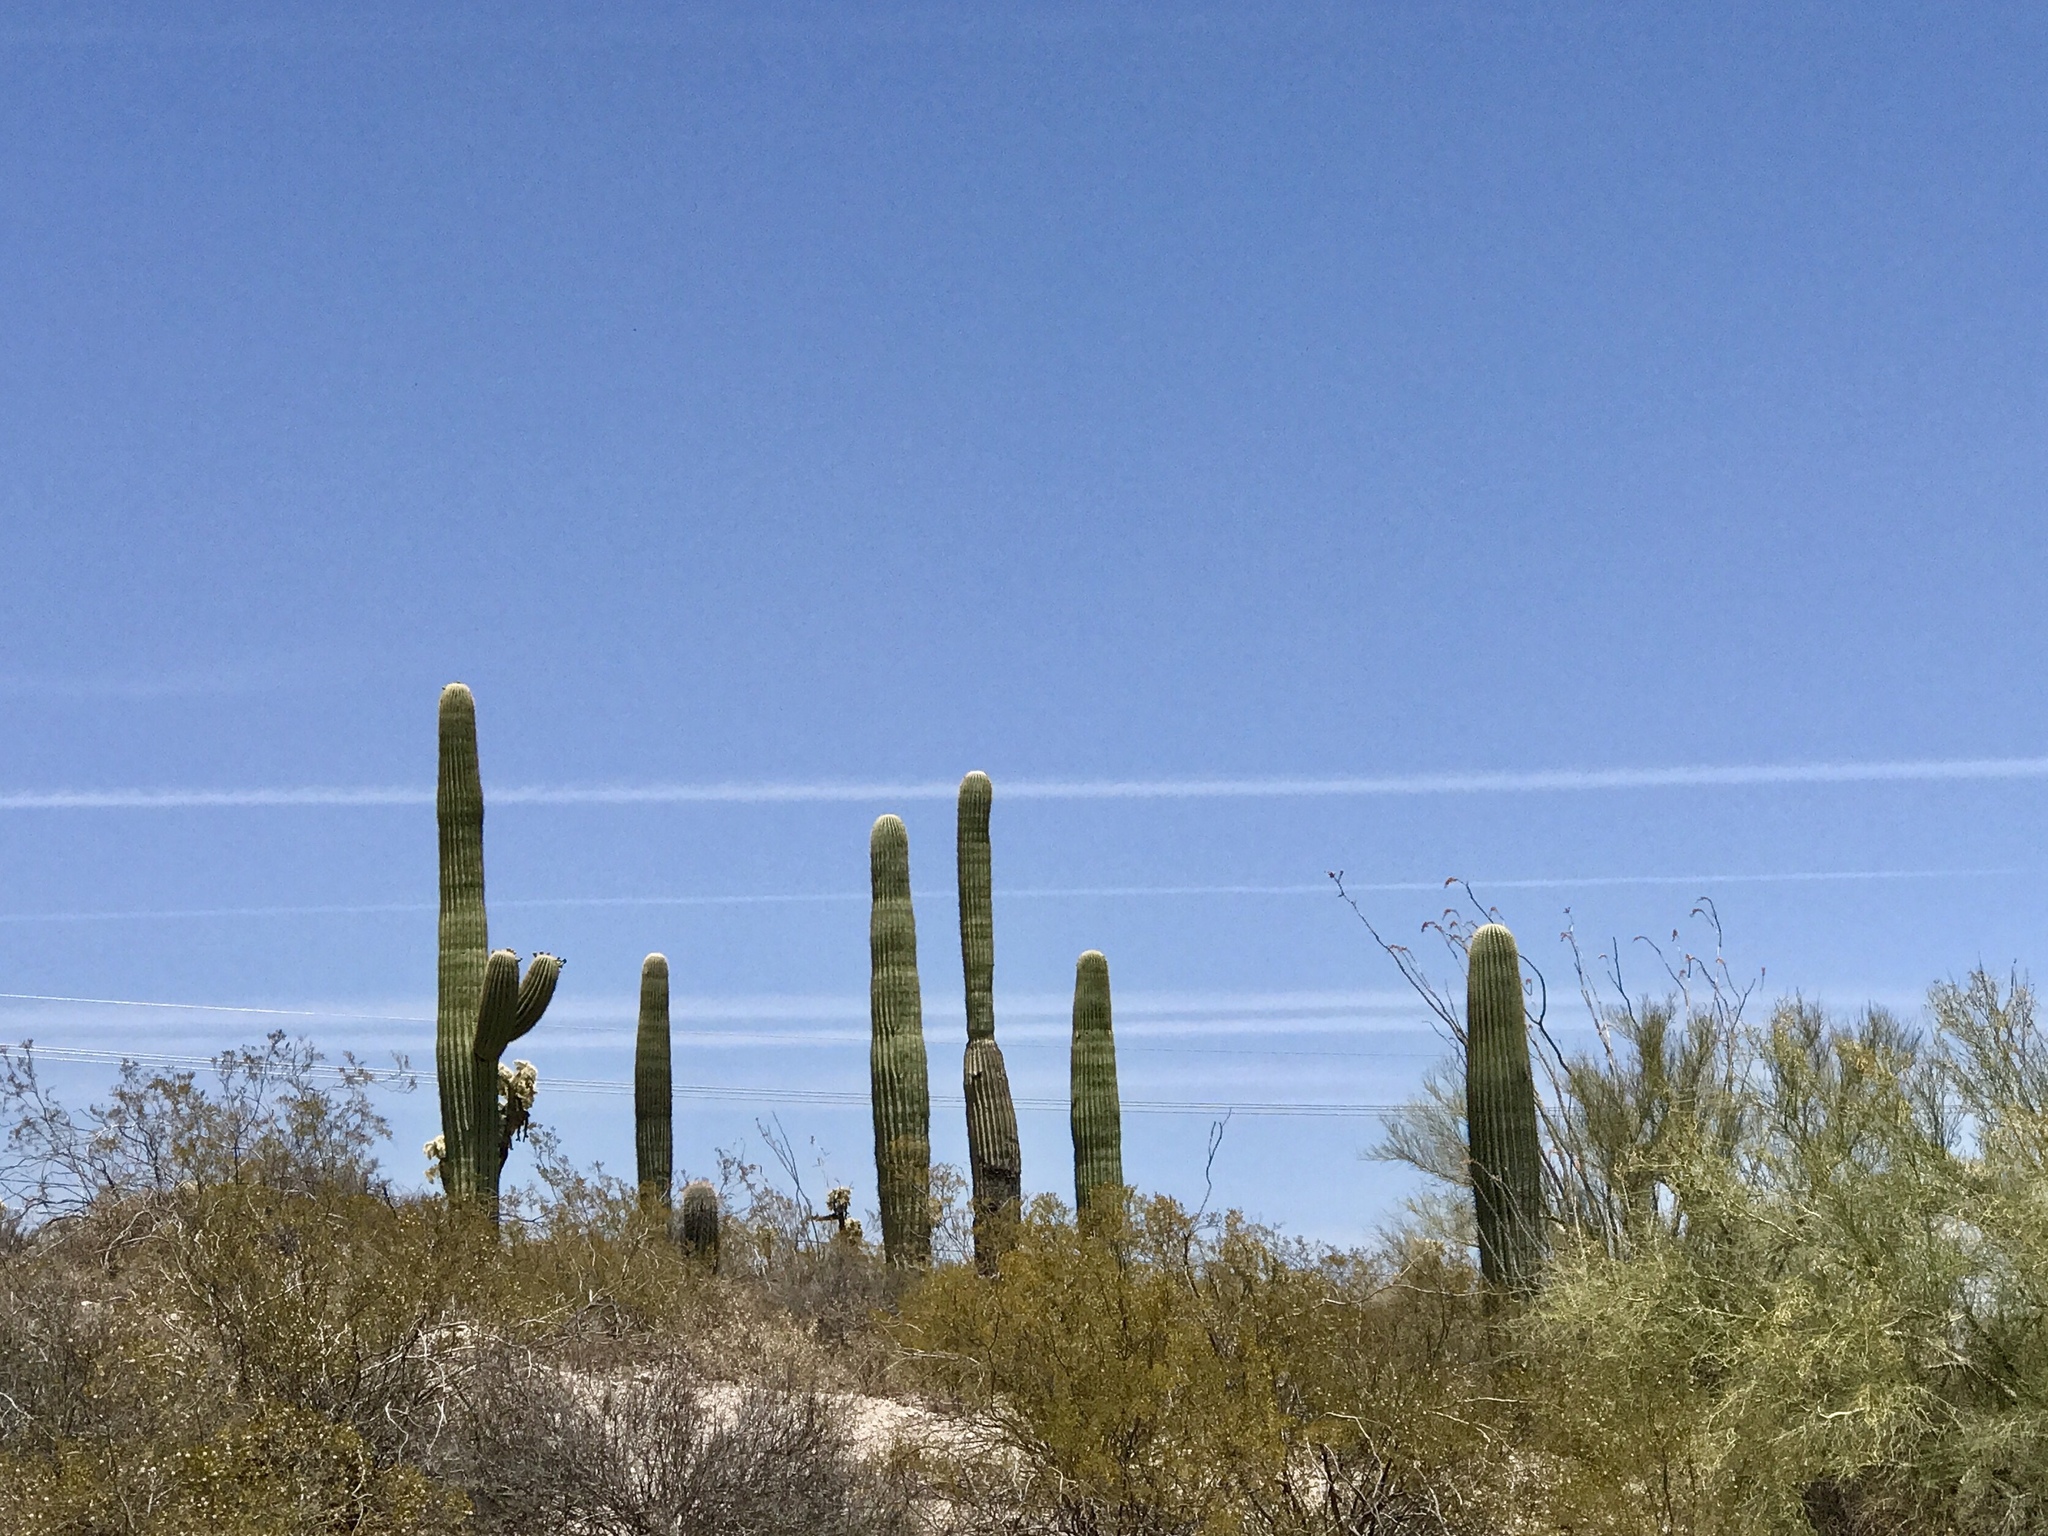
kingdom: Plantae
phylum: Tracheophyta
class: Magnoliopsida
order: Caryophyllales
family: Cactaceae
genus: Carnegiea
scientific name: Carnegiea gigantea
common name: Saguaro
